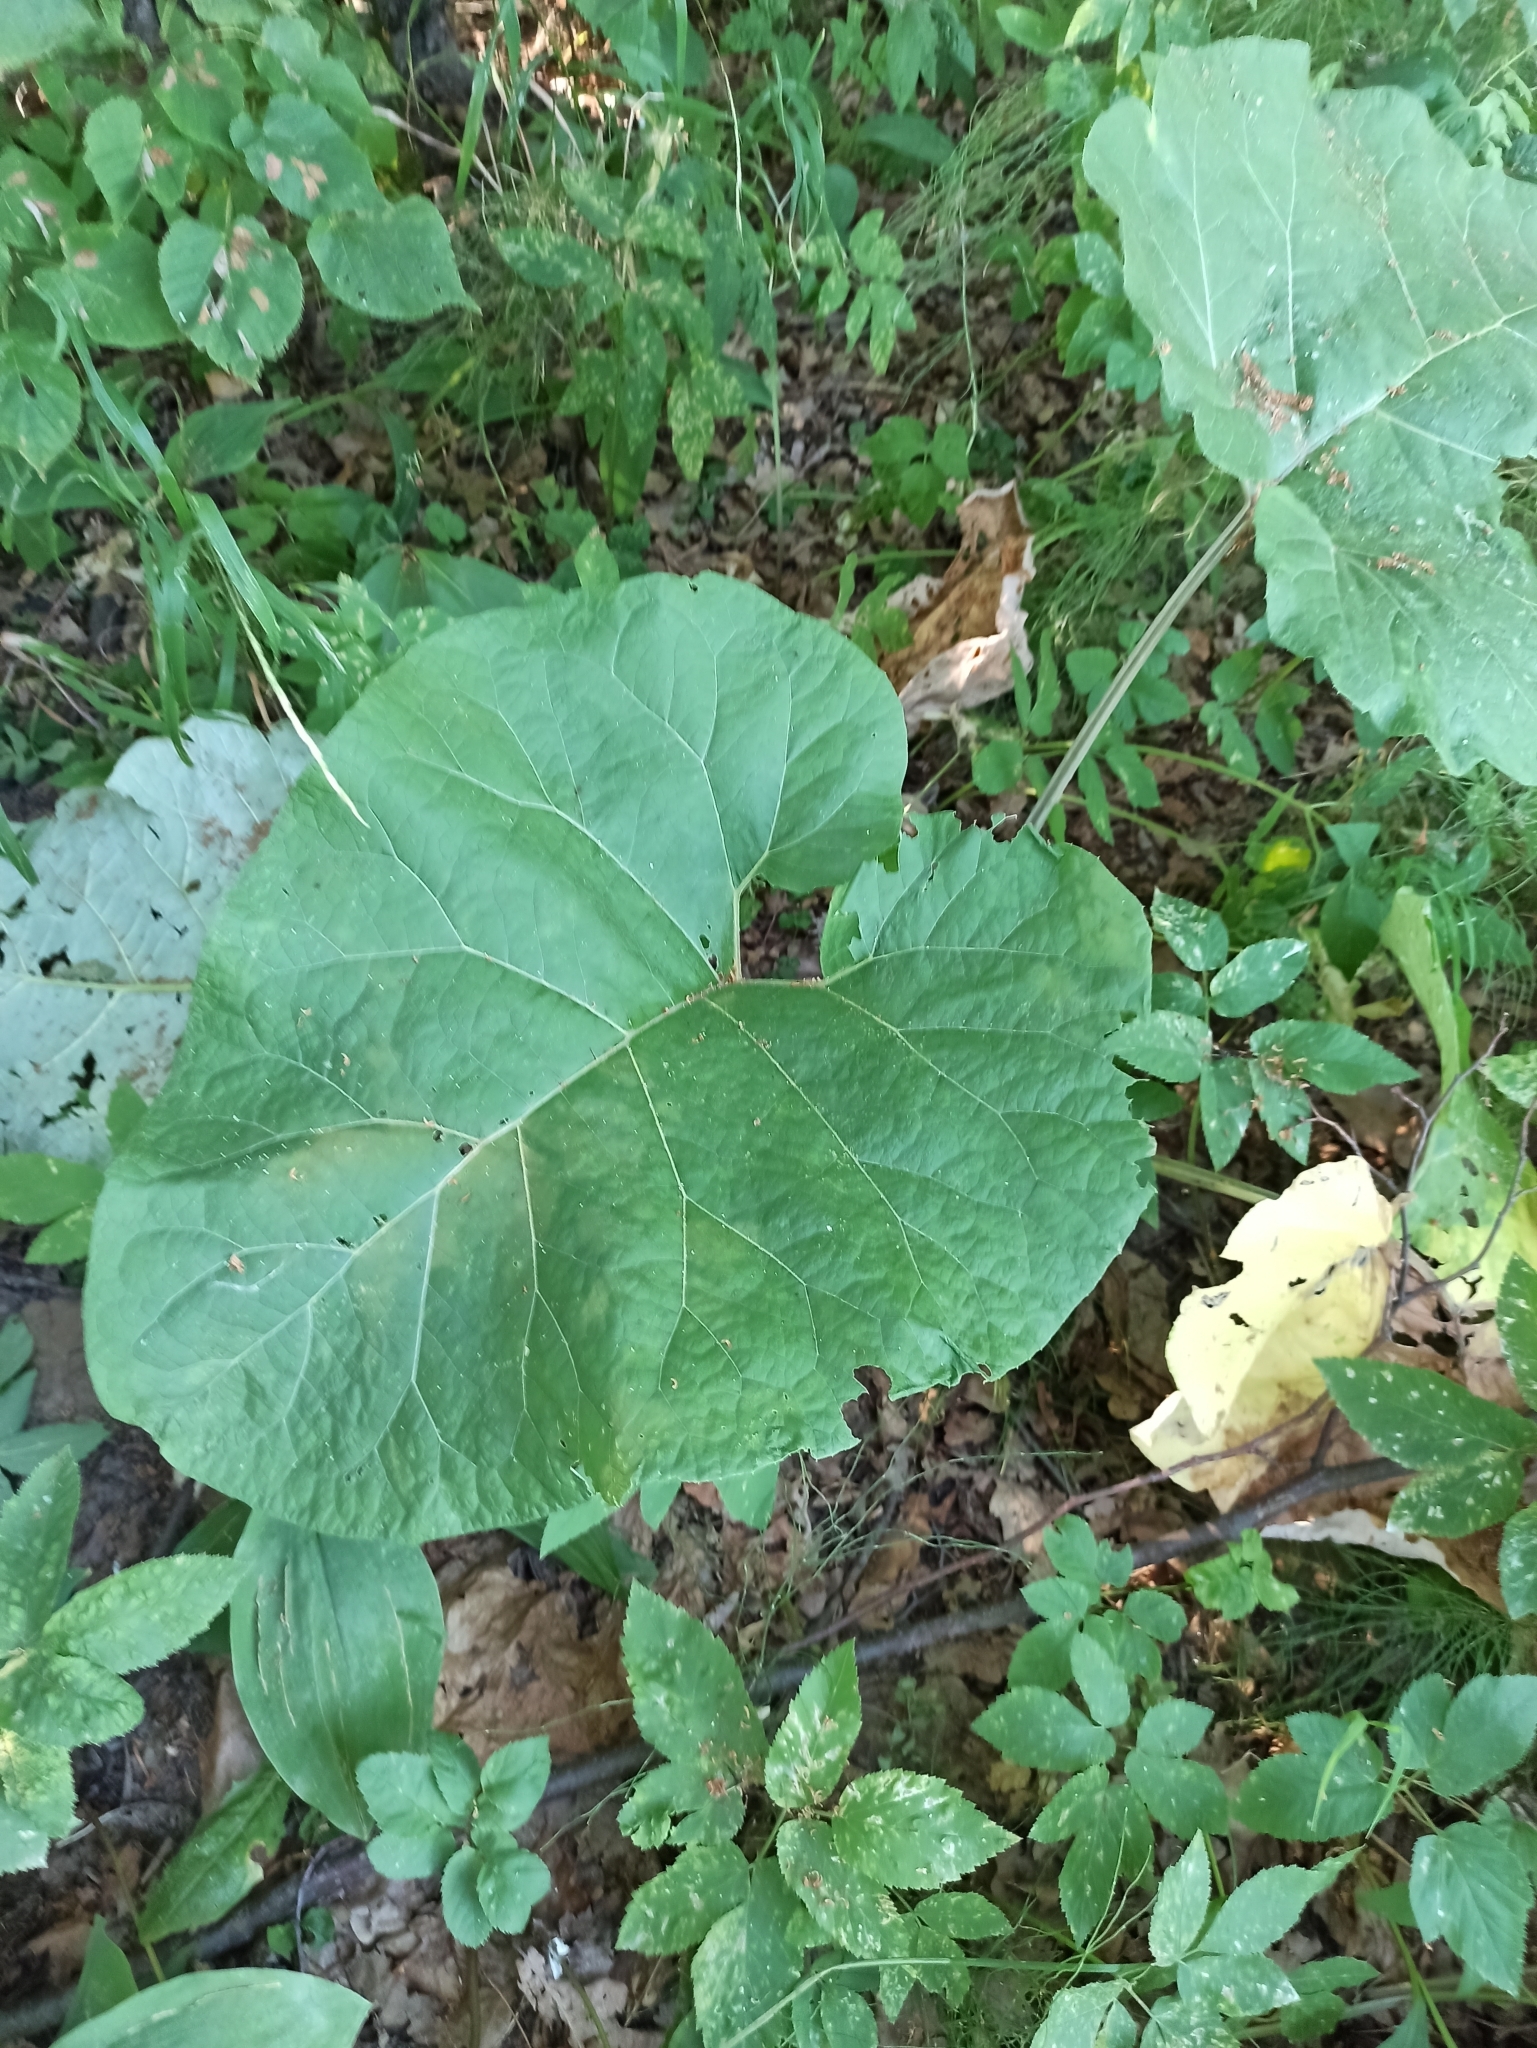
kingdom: Plantae
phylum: Tracheophyta
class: Magnoliopsida
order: Asterales
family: Asteraceae
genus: Arctium
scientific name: Arctium
